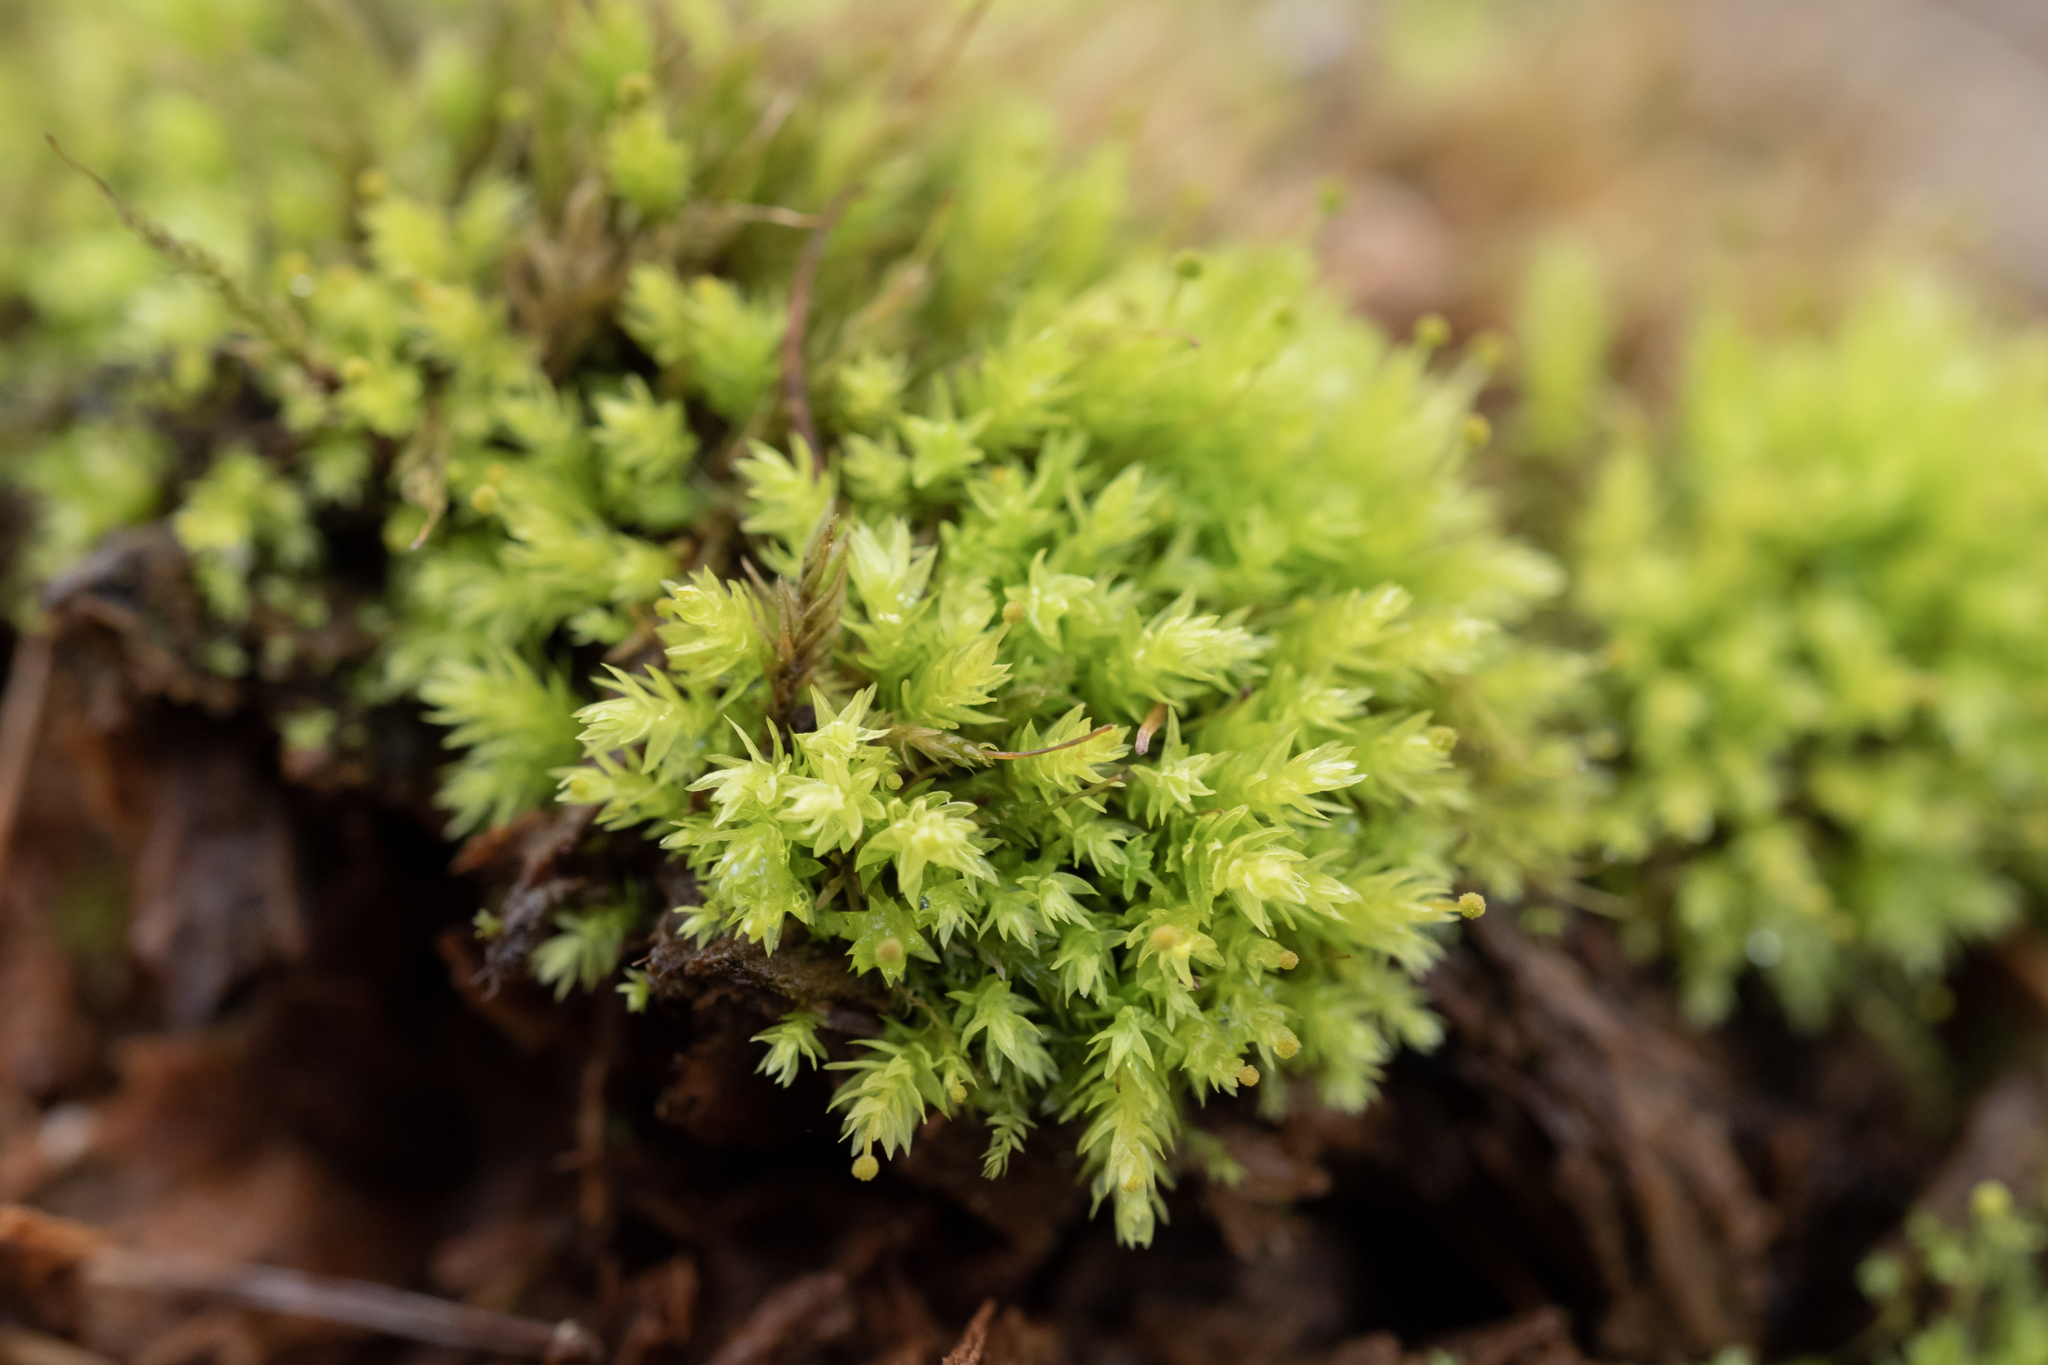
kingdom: Plantae
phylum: Bryophyta
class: Bryopsida
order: Aulacomniales
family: Aulacomniaceae
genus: Aulacomnium
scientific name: Aulacomnium androgynum
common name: Little groove moss
